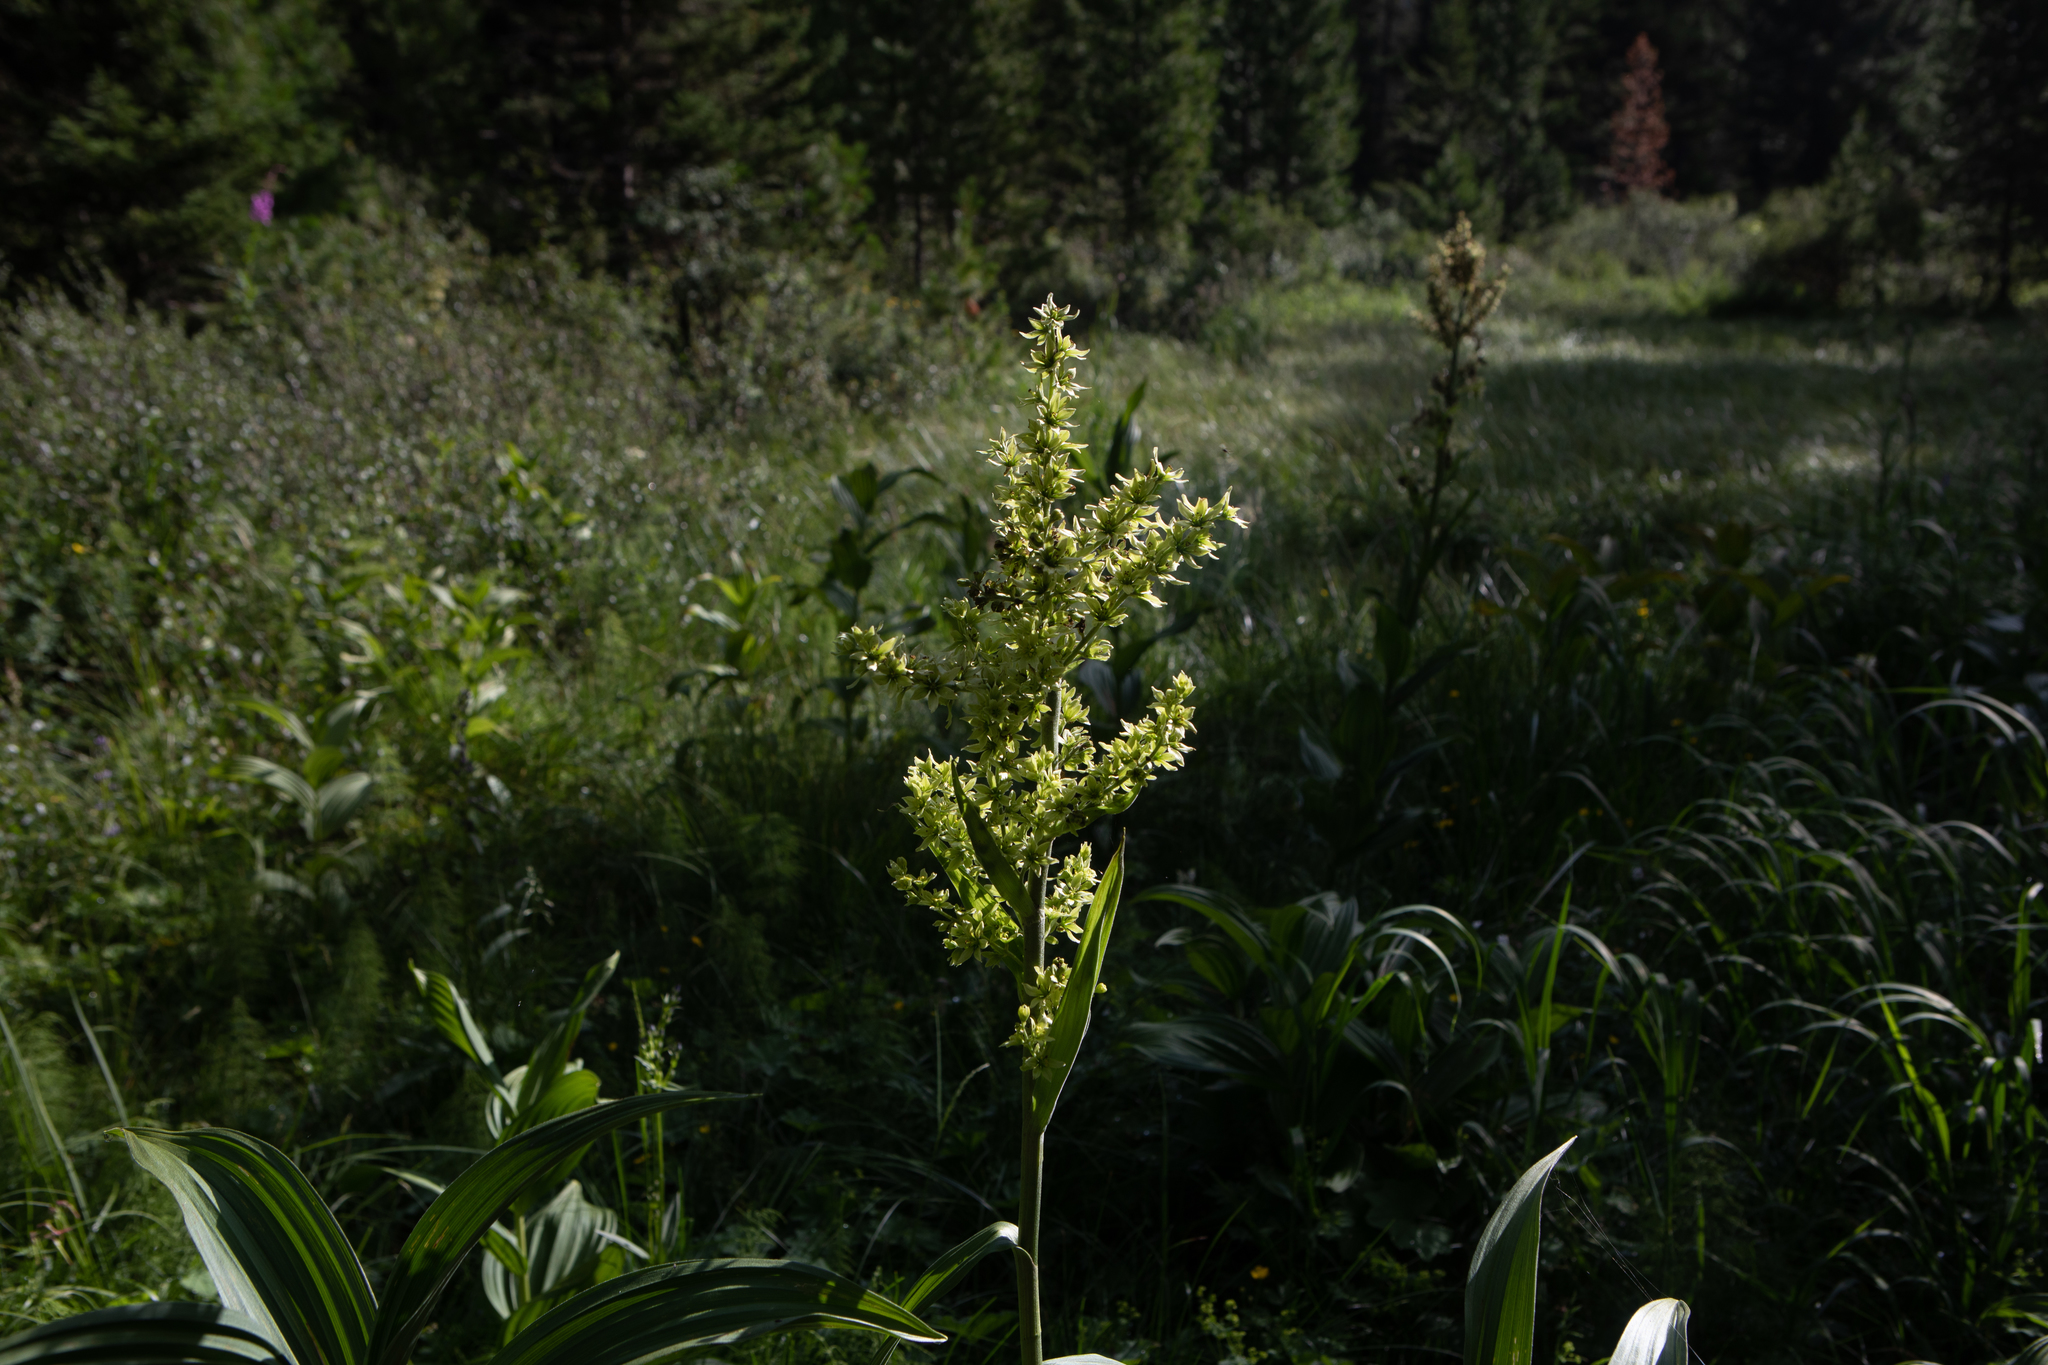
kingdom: Plantae
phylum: Tracheophyta
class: Liliopsida
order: Liliales
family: Melanthiaceae
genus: Veratrum
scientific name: Veratrum lobelianum
